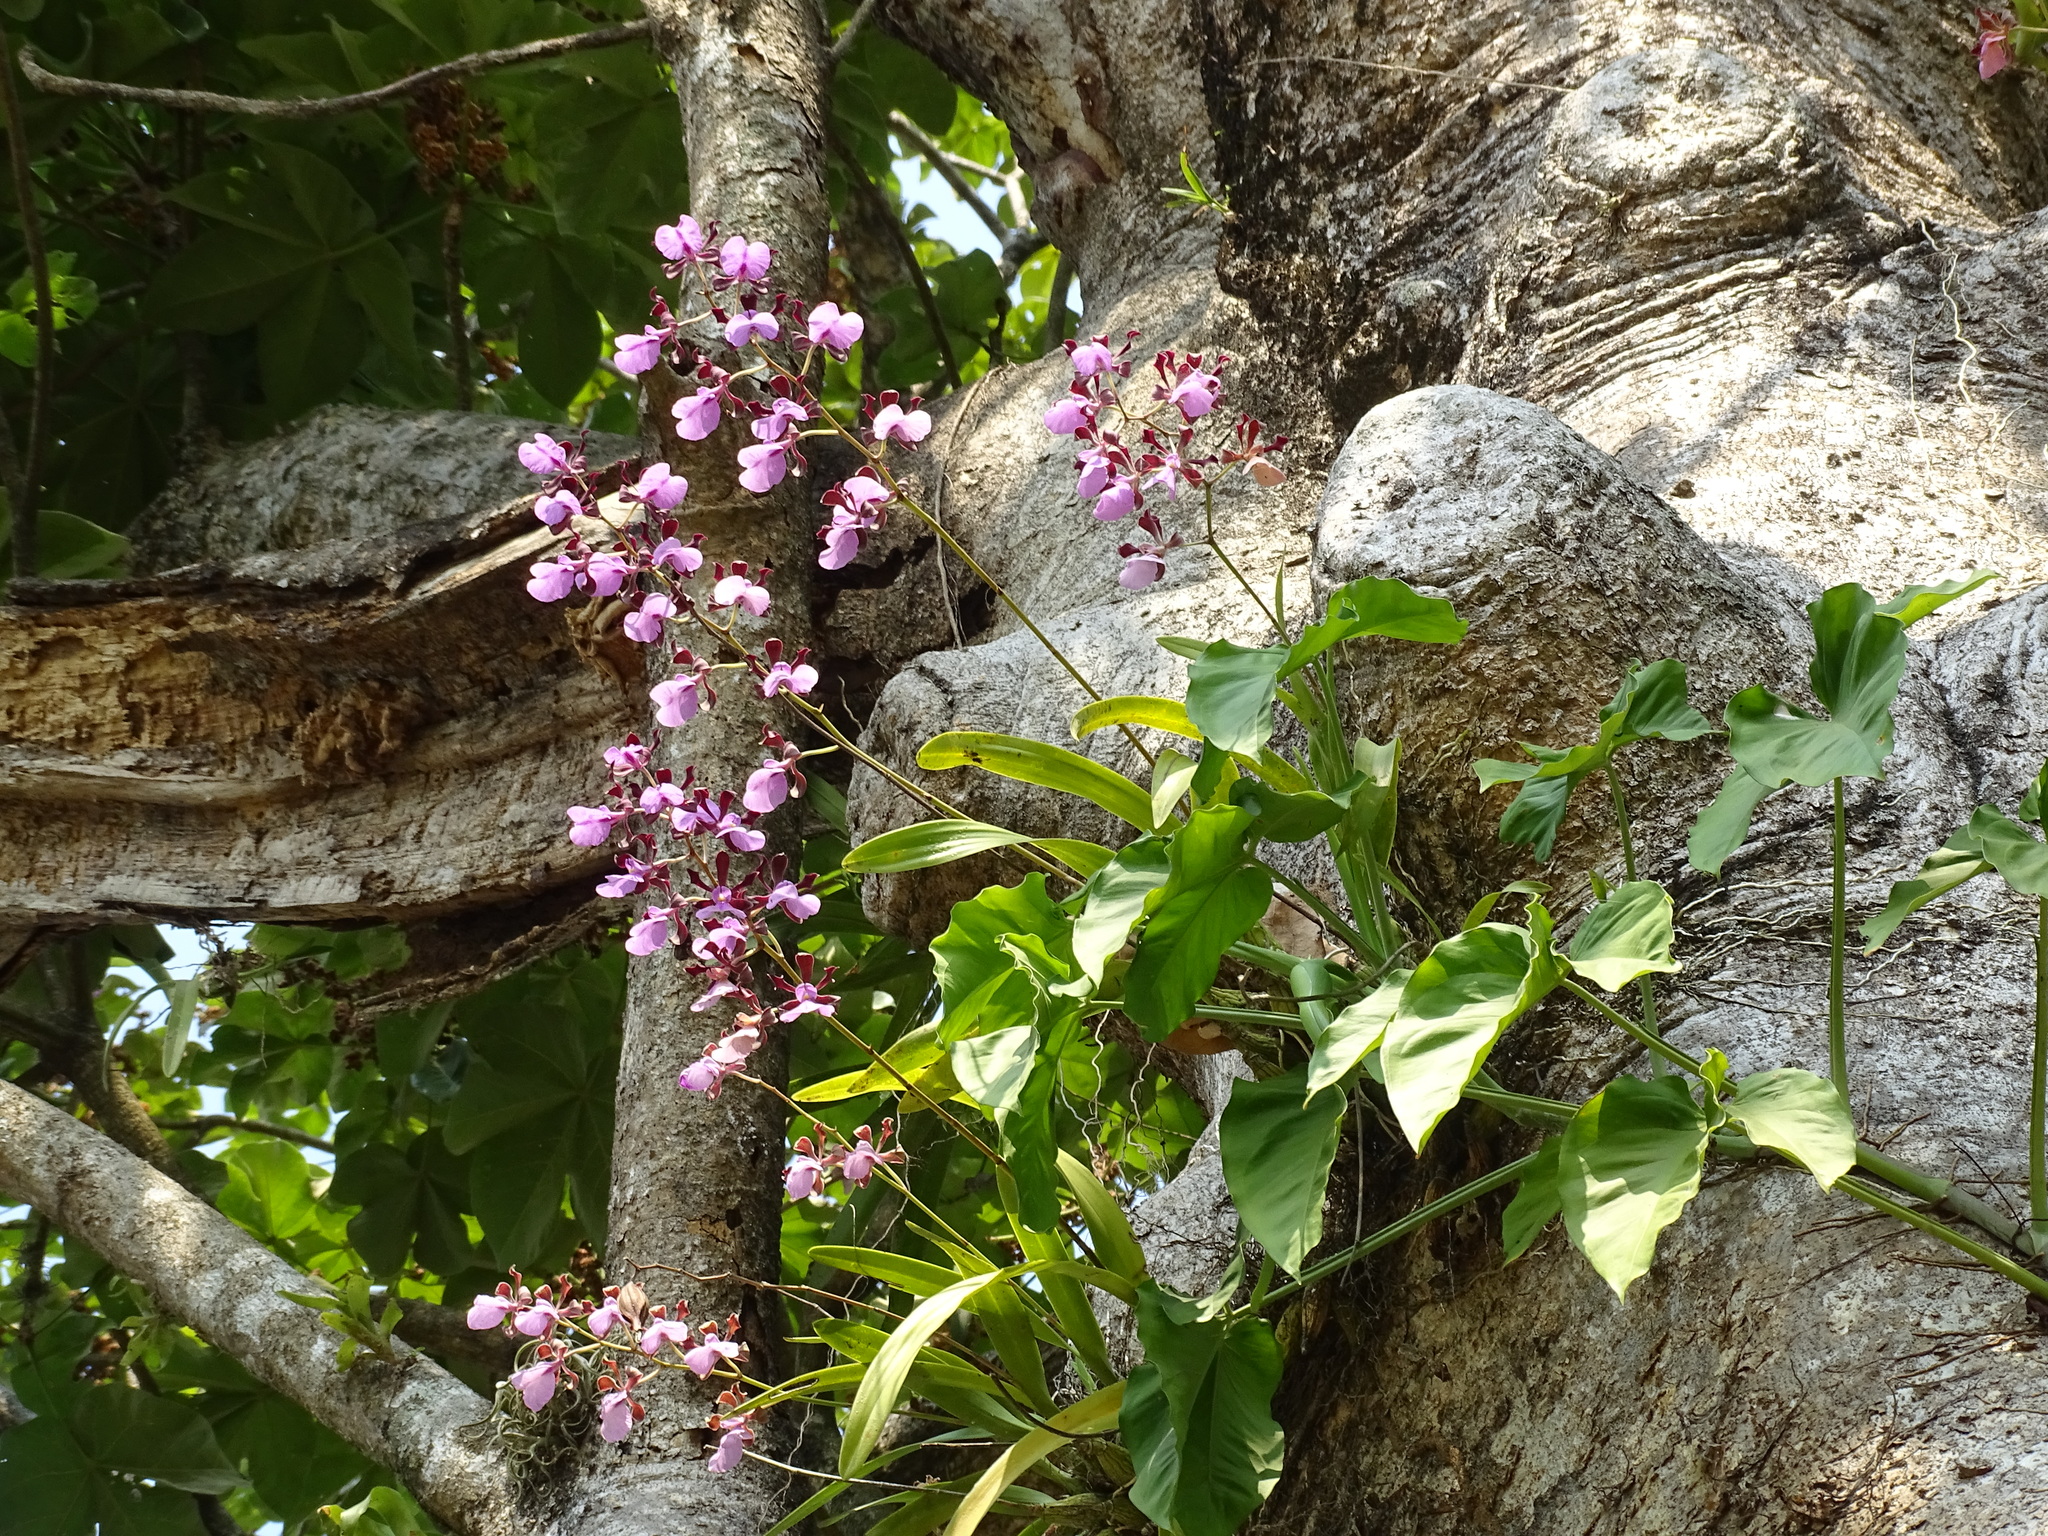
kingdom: Plantae
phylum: Tracheophyta
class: Liliopsida
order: Asparagales
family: Orchidaceae
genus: Encyclia
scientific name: Encyclia cordigera
